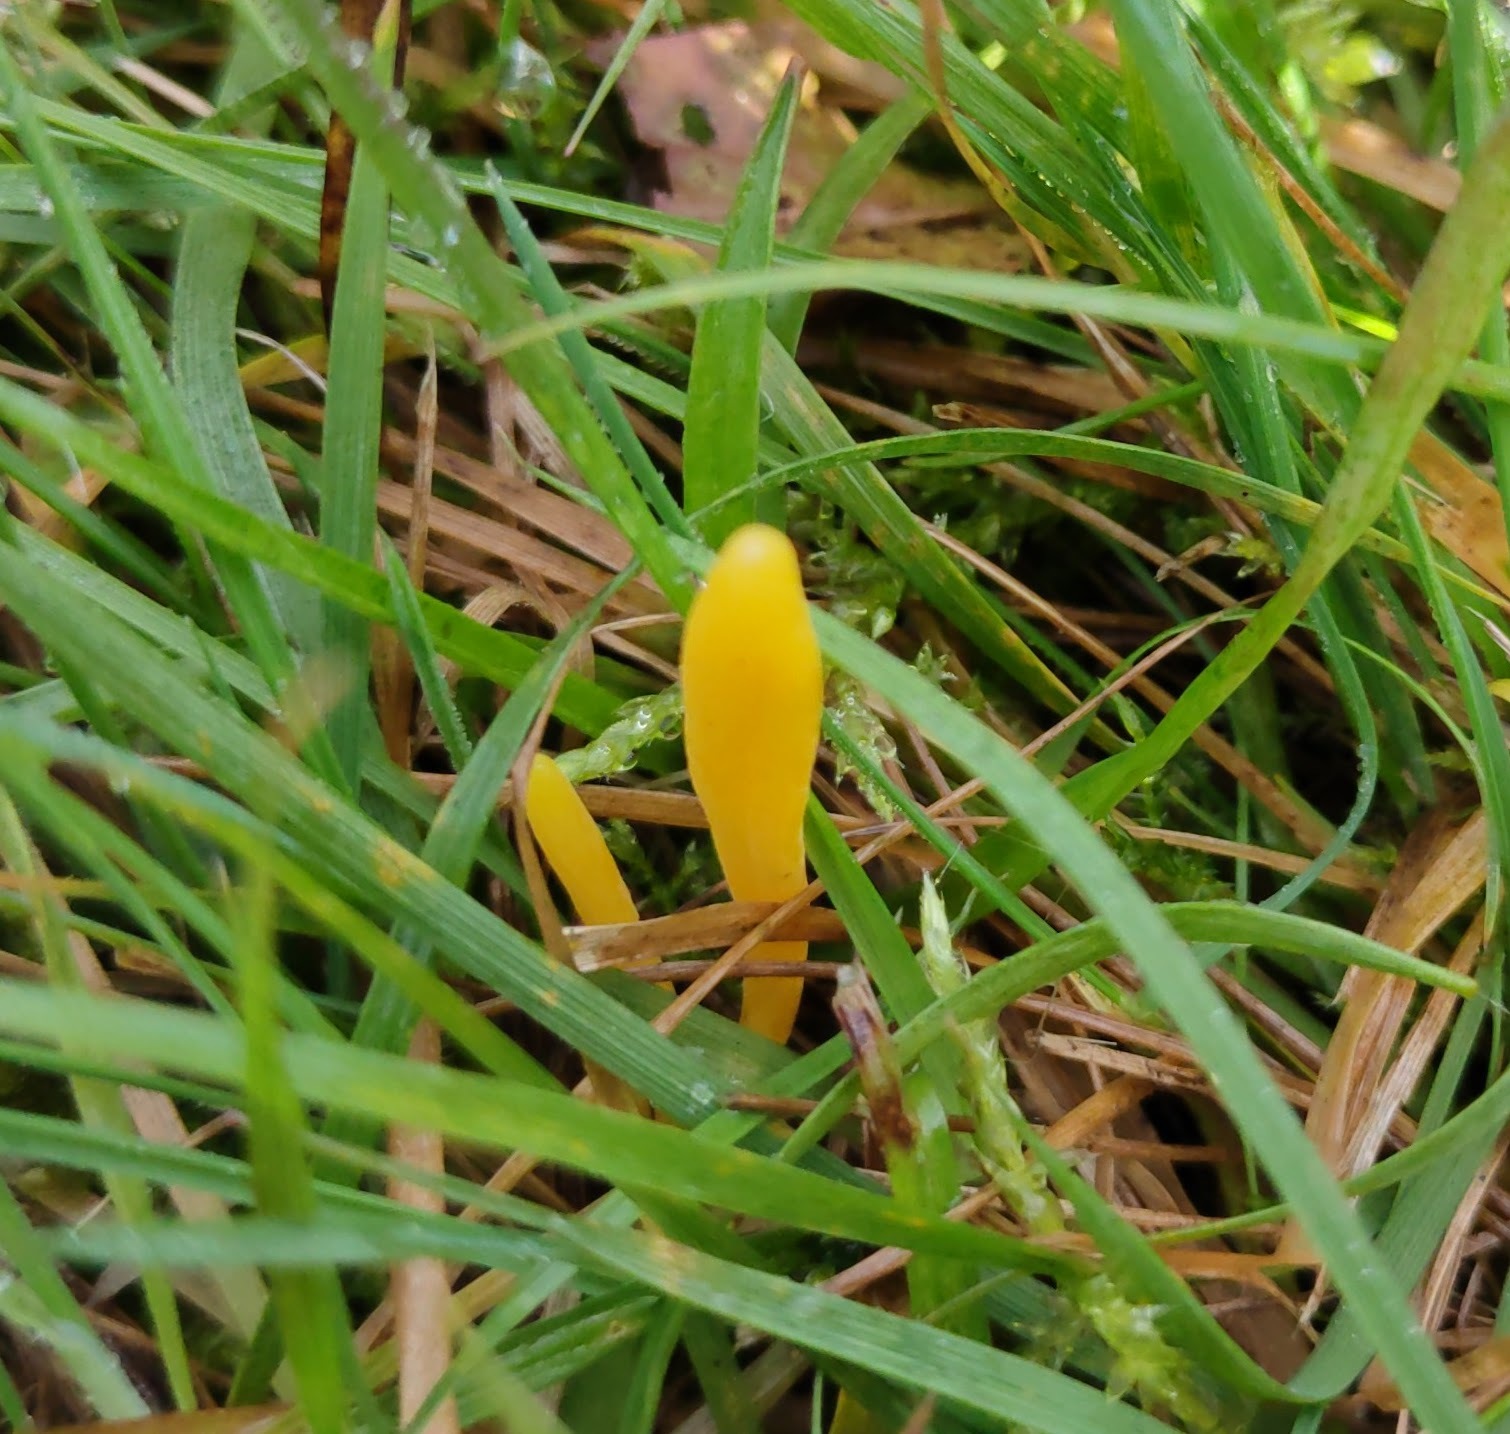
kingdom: Fungi
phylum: Basidiomycota
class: Agaricomycetes
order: Agaricales
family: Clavariaceae
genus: Clavulinopsis
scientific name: Clavulinopsis helvola
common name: Yellow club
